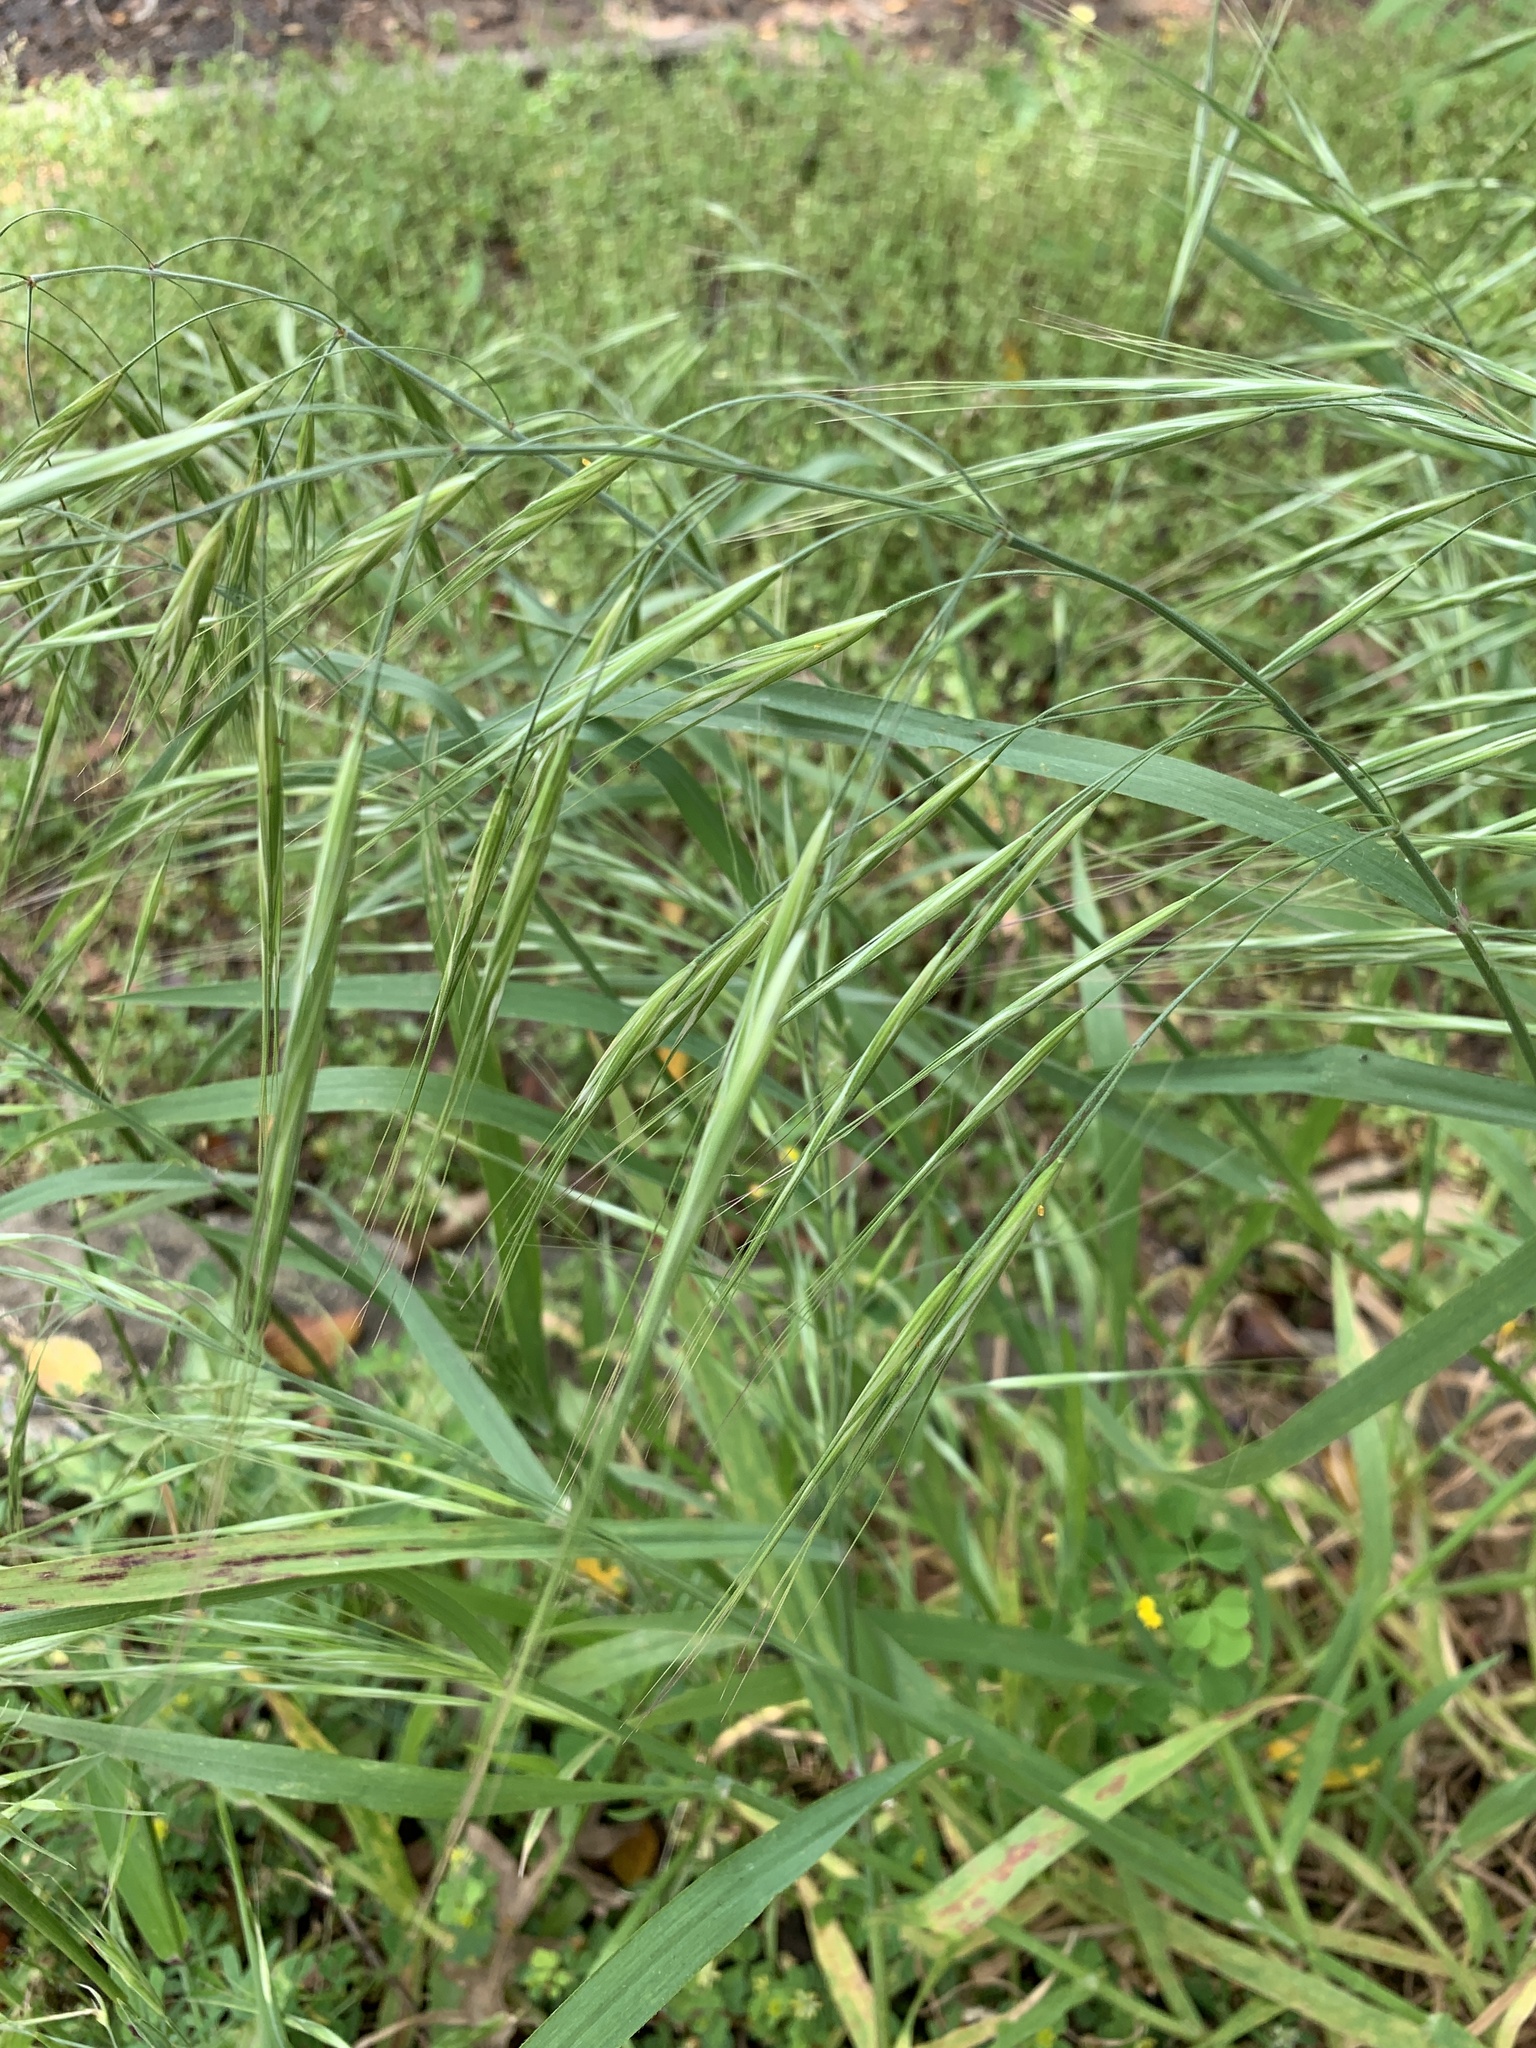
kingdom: Plantae
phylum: Tracheophyta
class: Liliopsida
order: Poales
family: Poaceae
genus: Bromus
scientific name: Bromus diandrus
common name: Ripgut brome
